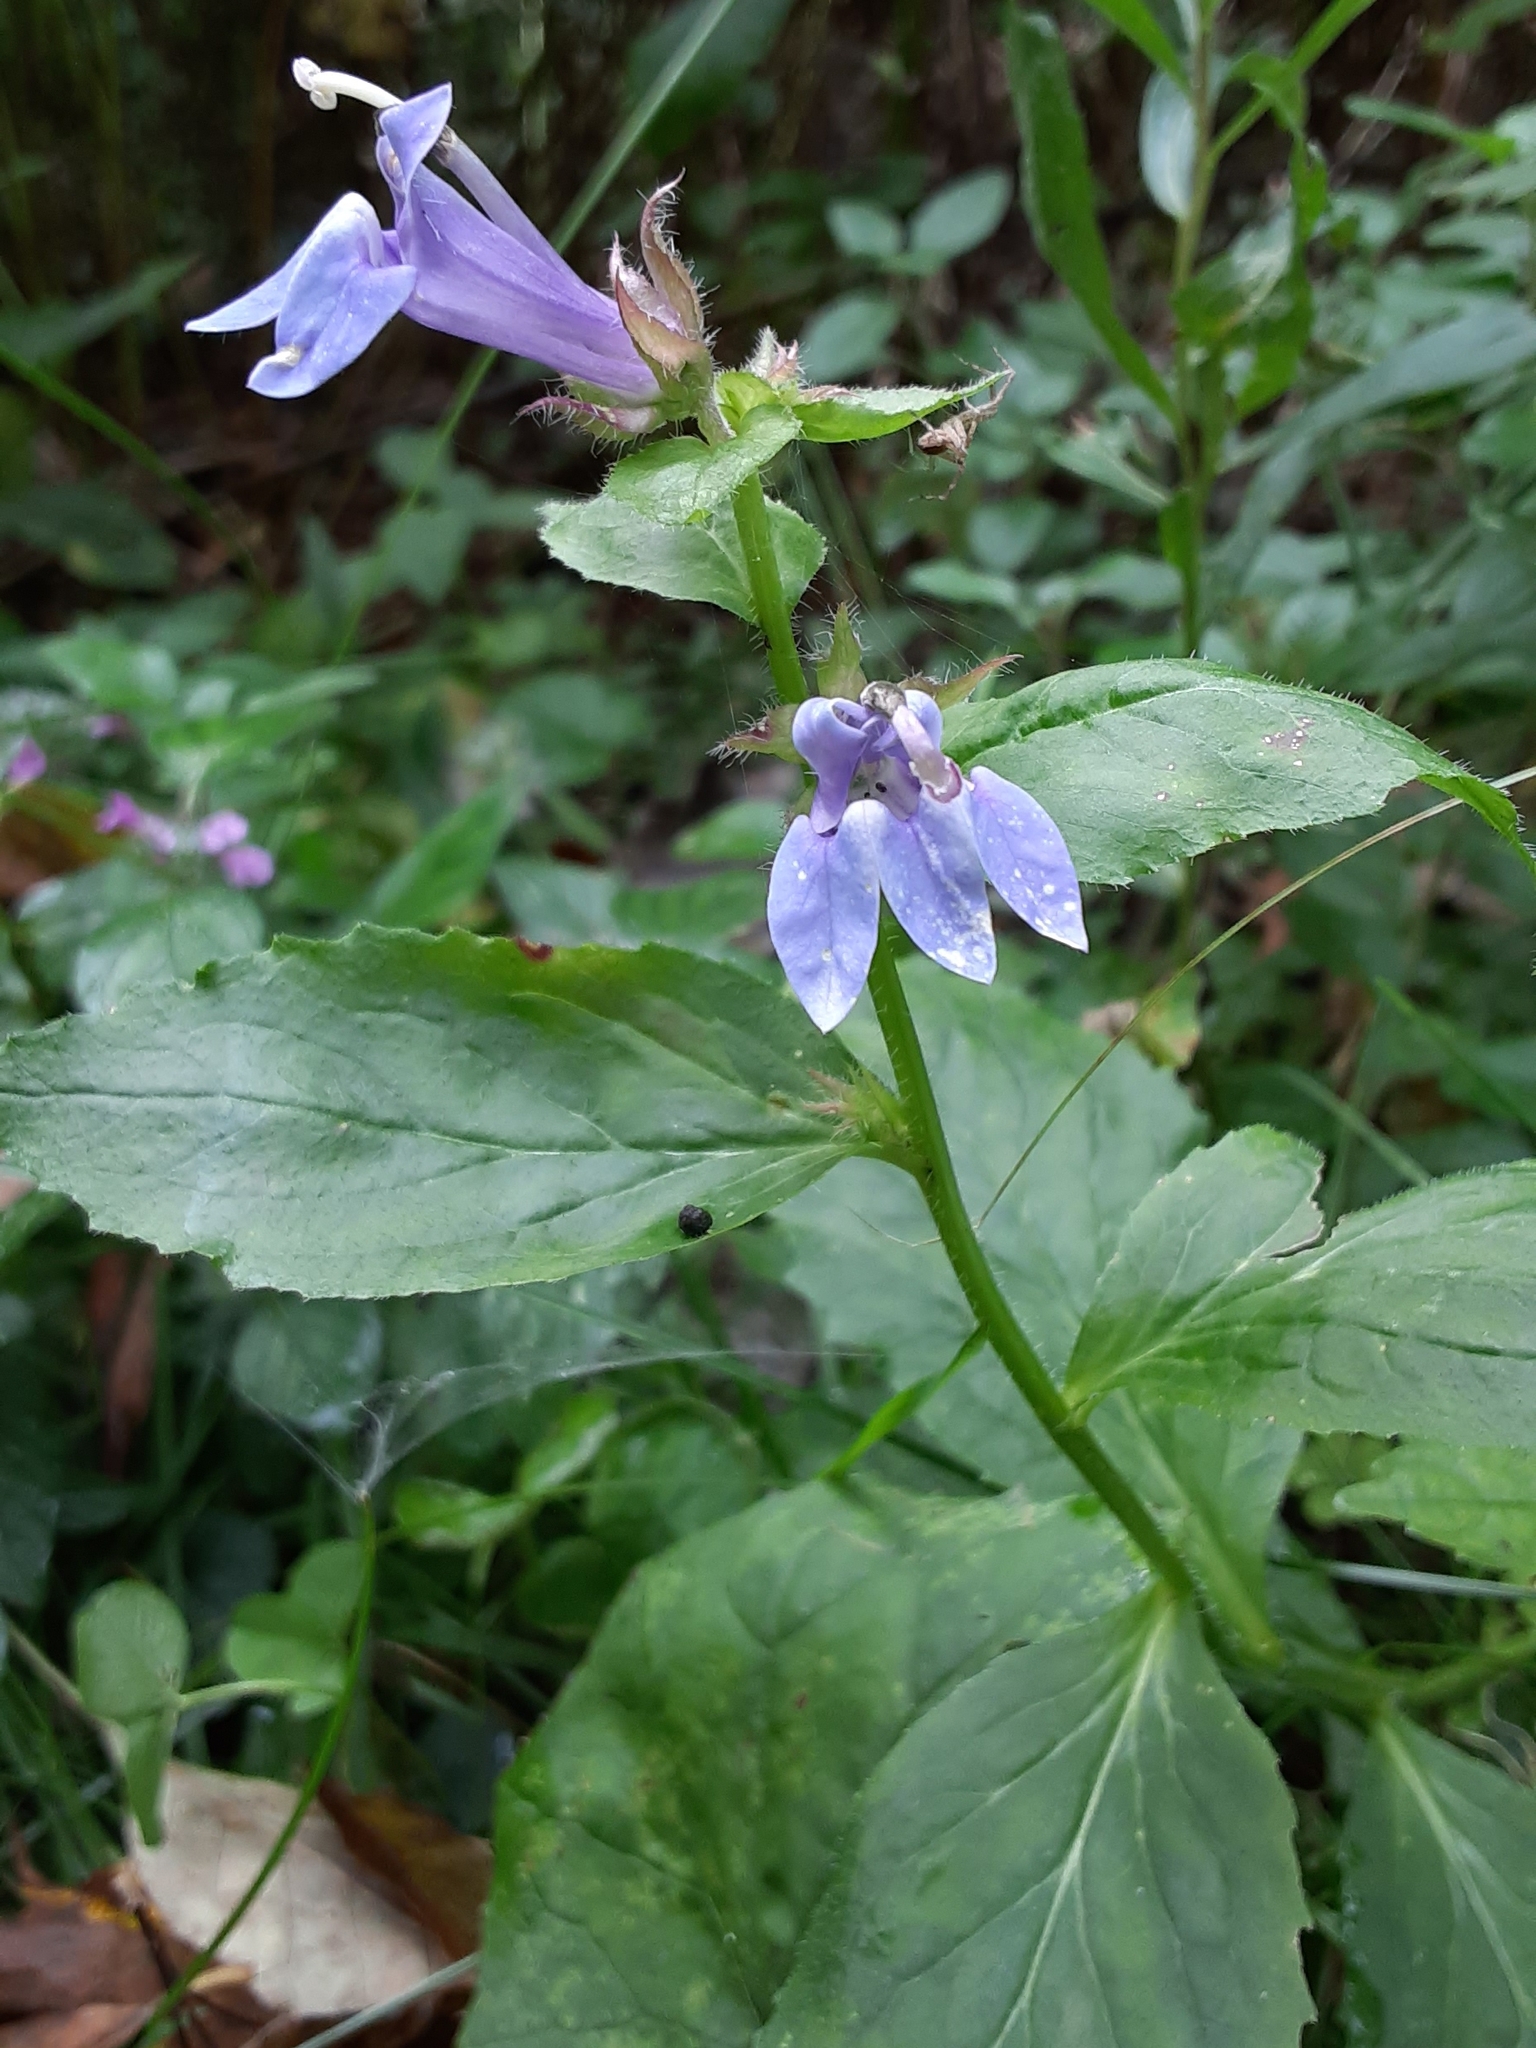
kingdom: Plantae
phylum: Tracheophyta
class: Magnoliopsida
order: Asterales
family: Campanulaceae
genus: Lobelia
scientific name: Lobelia siphilitica
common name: Great lobelia
